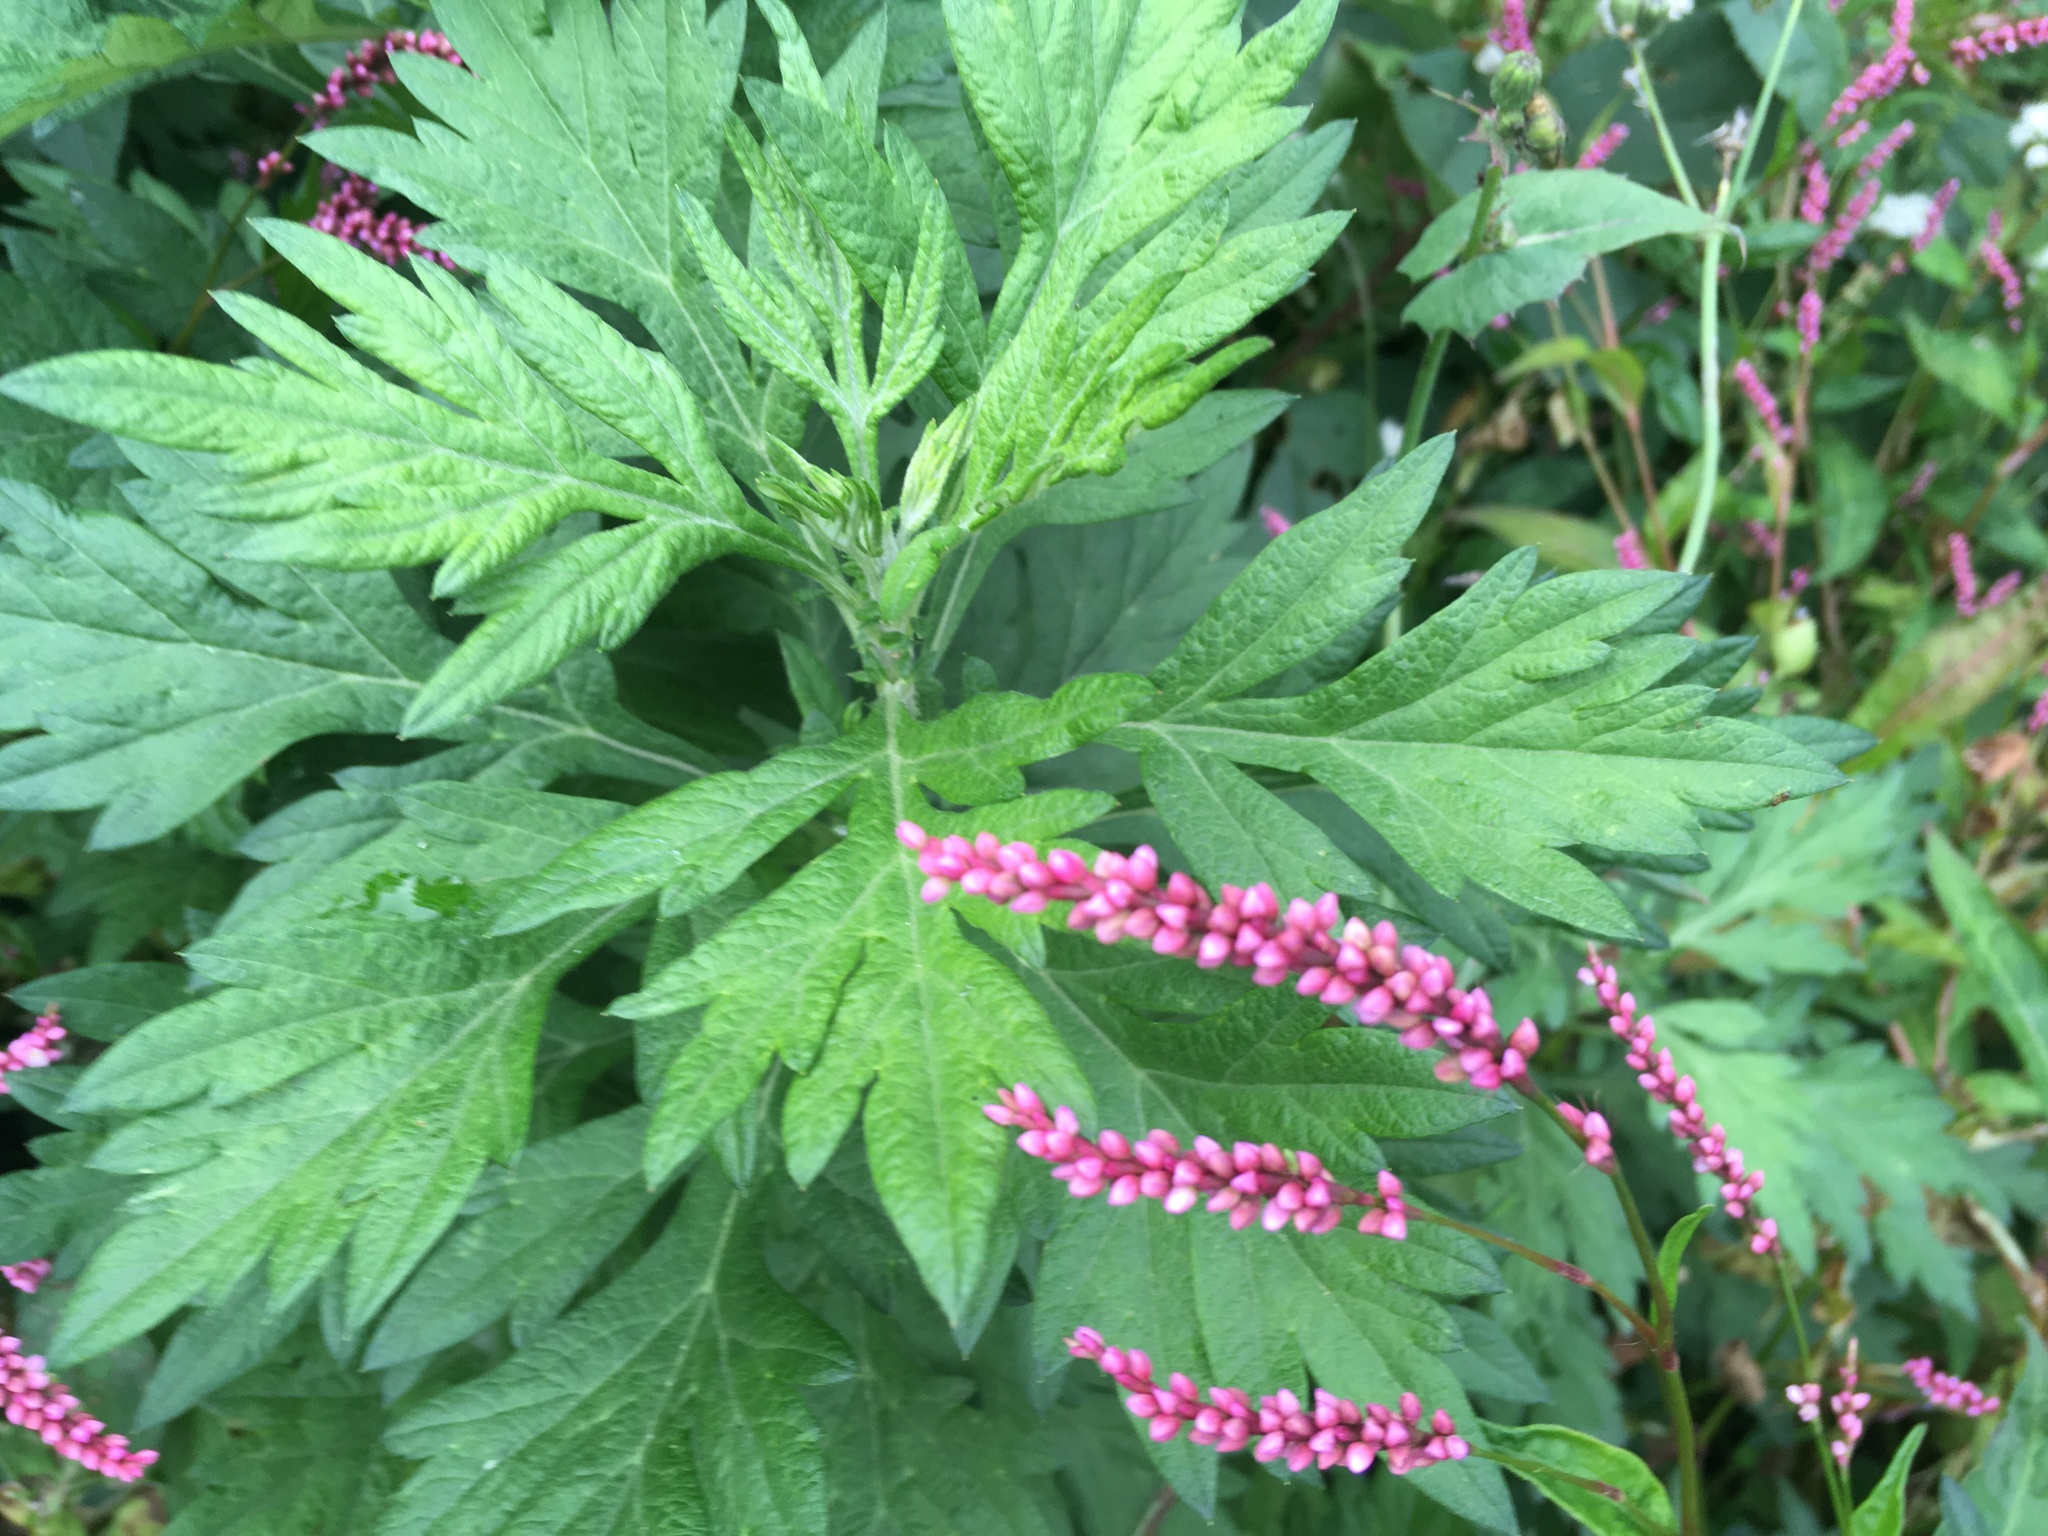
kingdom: Plantae
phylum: Tracheophyta
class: Magnoliopsida
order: Asterales
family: Asteraceae
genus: Artemisia
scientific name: Artemisia vulgaris
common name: Mugwort
